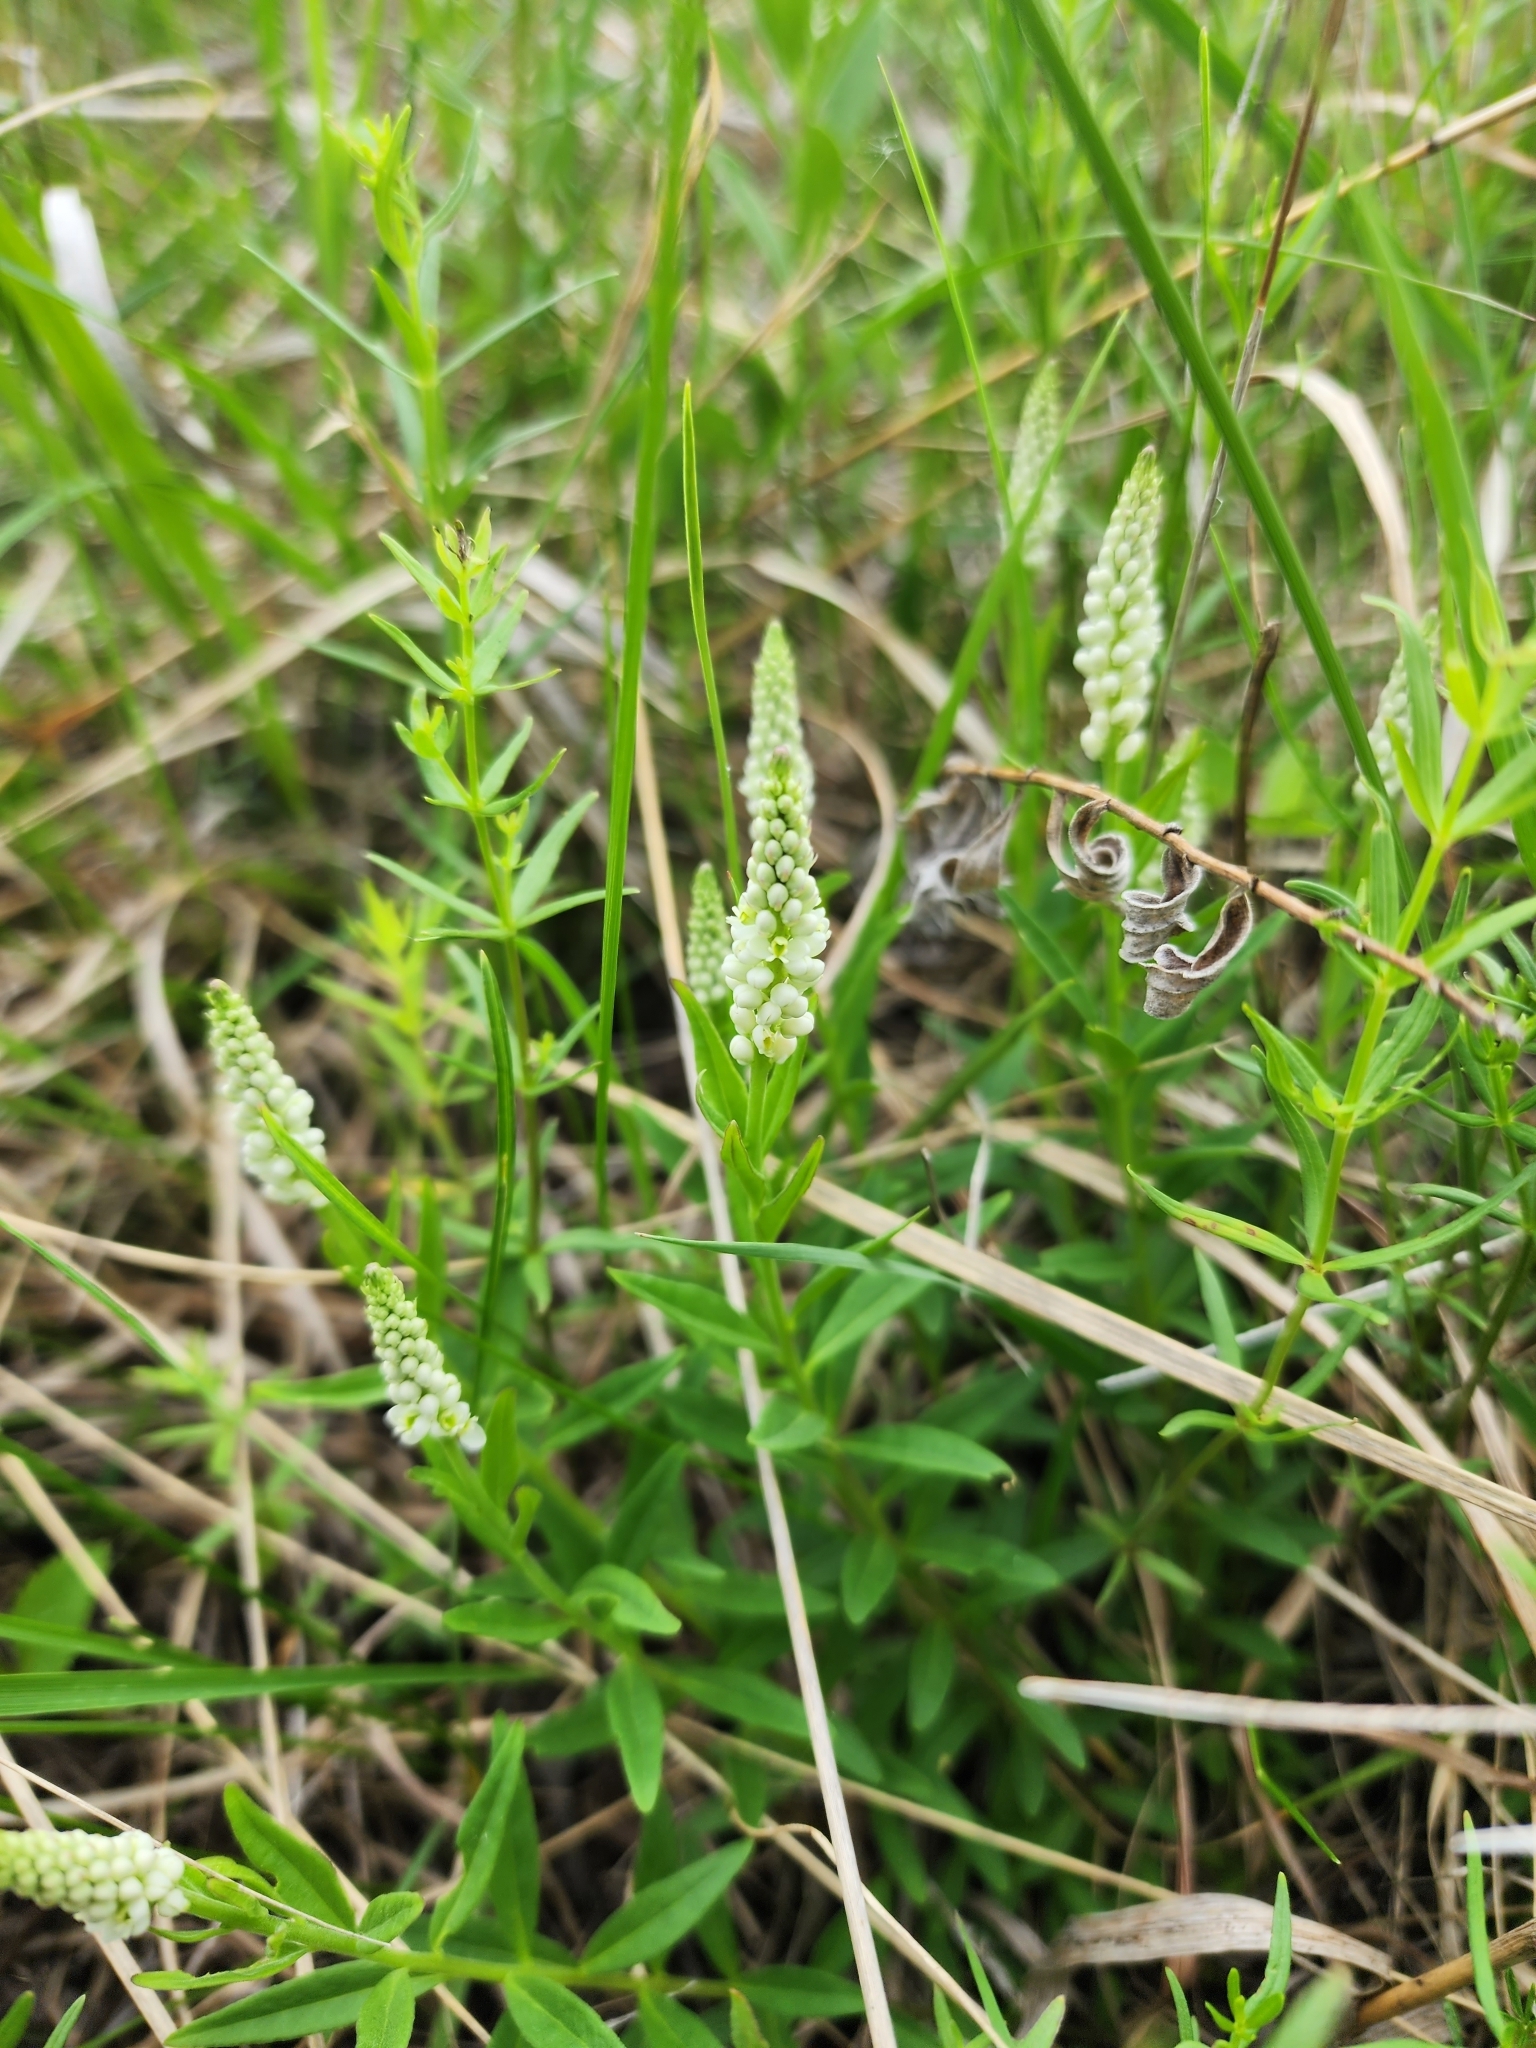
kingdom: Plantae
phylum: Tracheophyta
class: Magnoliopsida
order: Fabales
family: Polygalaceae
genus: Polygala
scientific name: Polygala senega
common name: Seneca snakeroot
